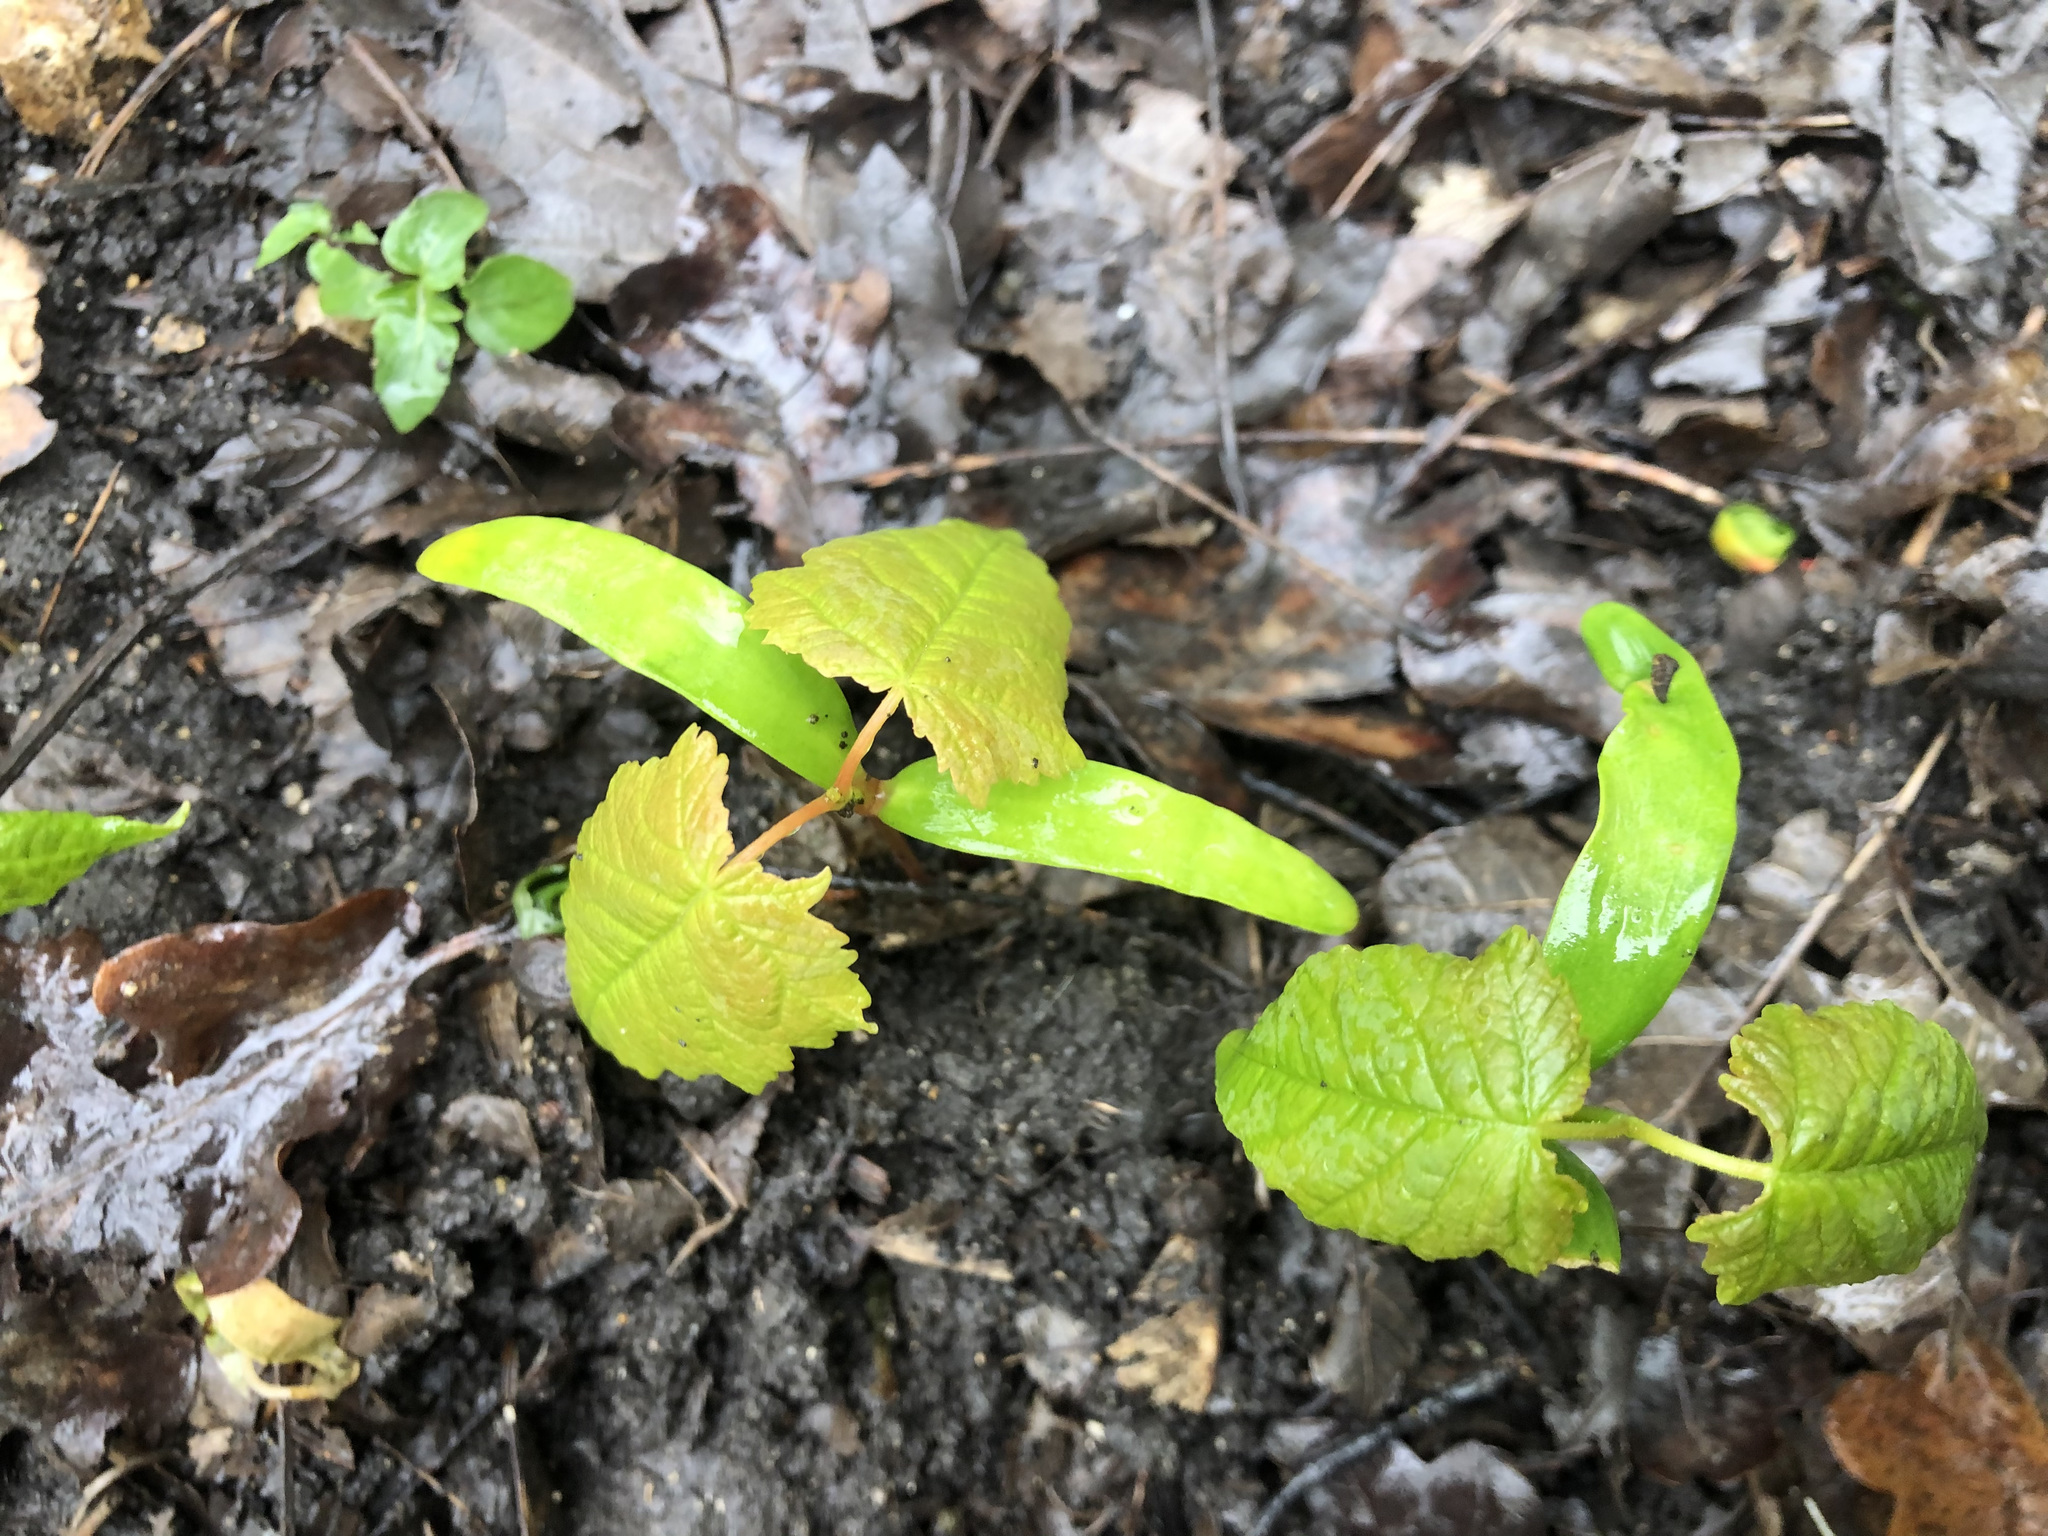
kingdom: Plantae
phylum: Tracheophyta
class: Magnoliopsida
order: Sapindales
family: Sapindaceae
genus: Acer
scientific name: Acer pseudoplatanus
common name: Sycamore
